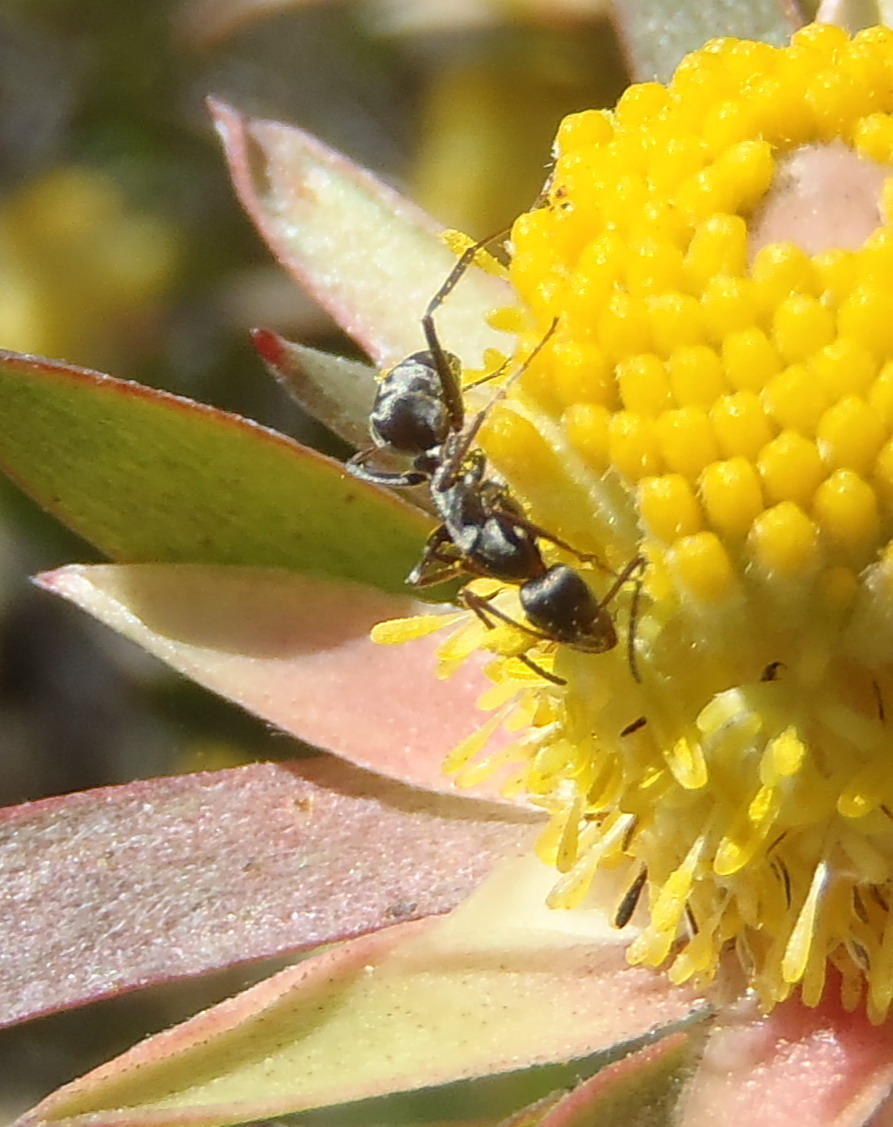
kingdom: Animalia
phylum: Arthropoda
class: Insecta
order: Hymenoptera
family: Formicidae
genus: Camponotus
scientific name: Camponotus rufoglaucus
